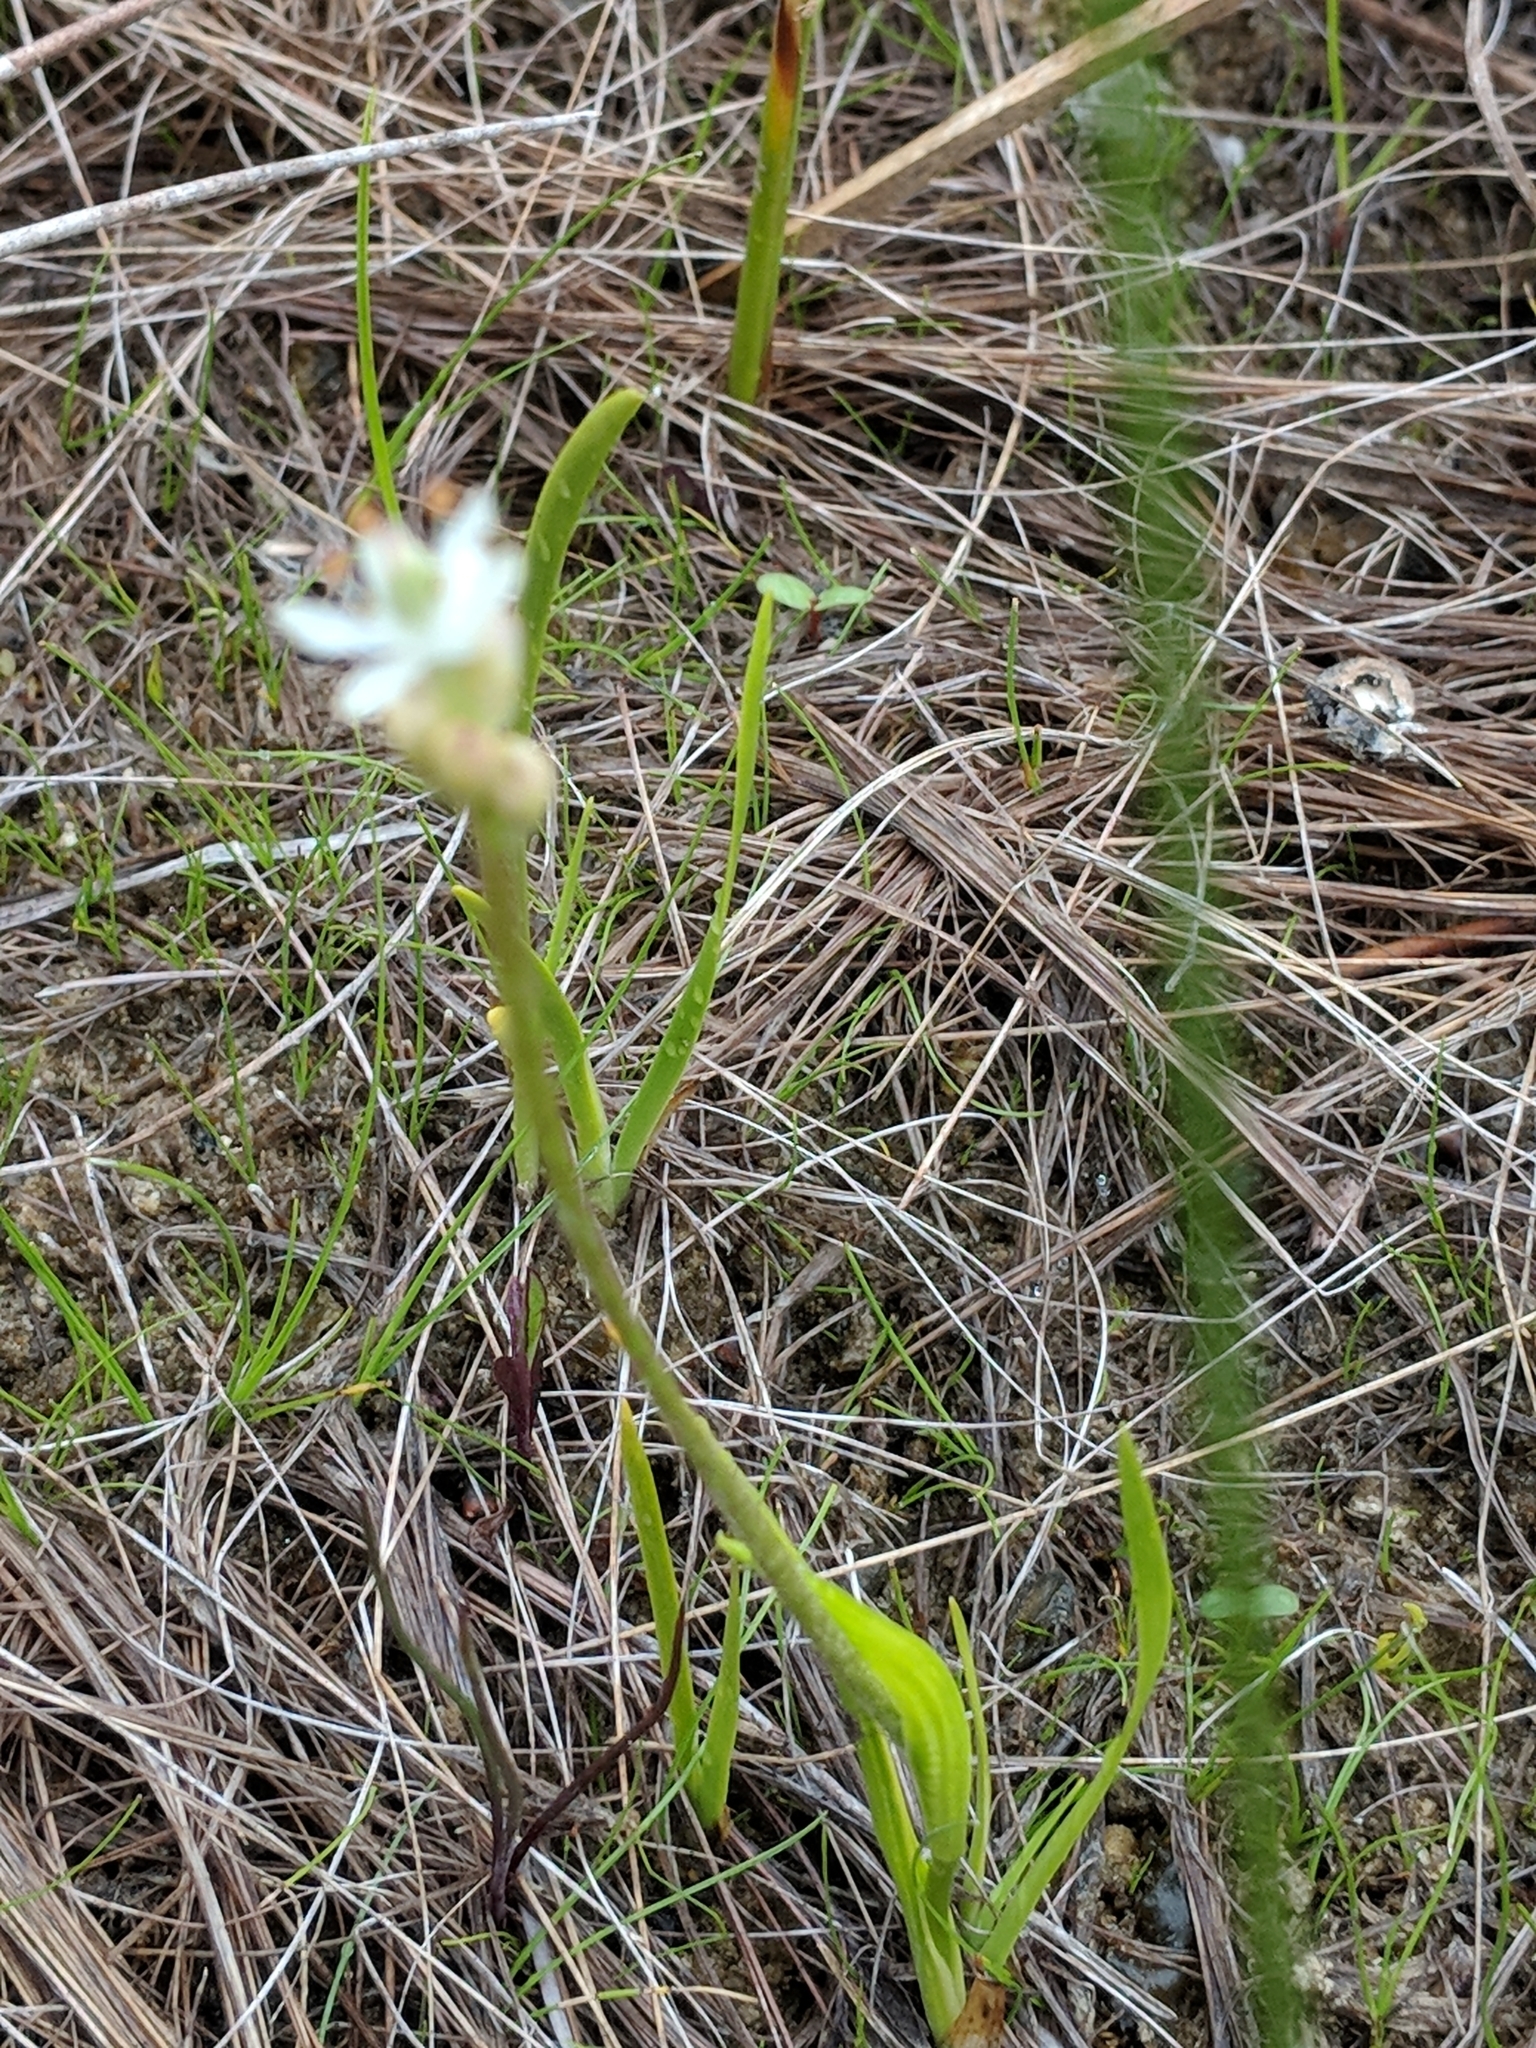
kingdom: Plantae
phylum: Tracheophyta
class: Liliopsida
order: Alismatales
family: Tofieldiaceae
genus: Triantha
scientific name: Triantha glutinosa
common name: Glutinous tofieldia
